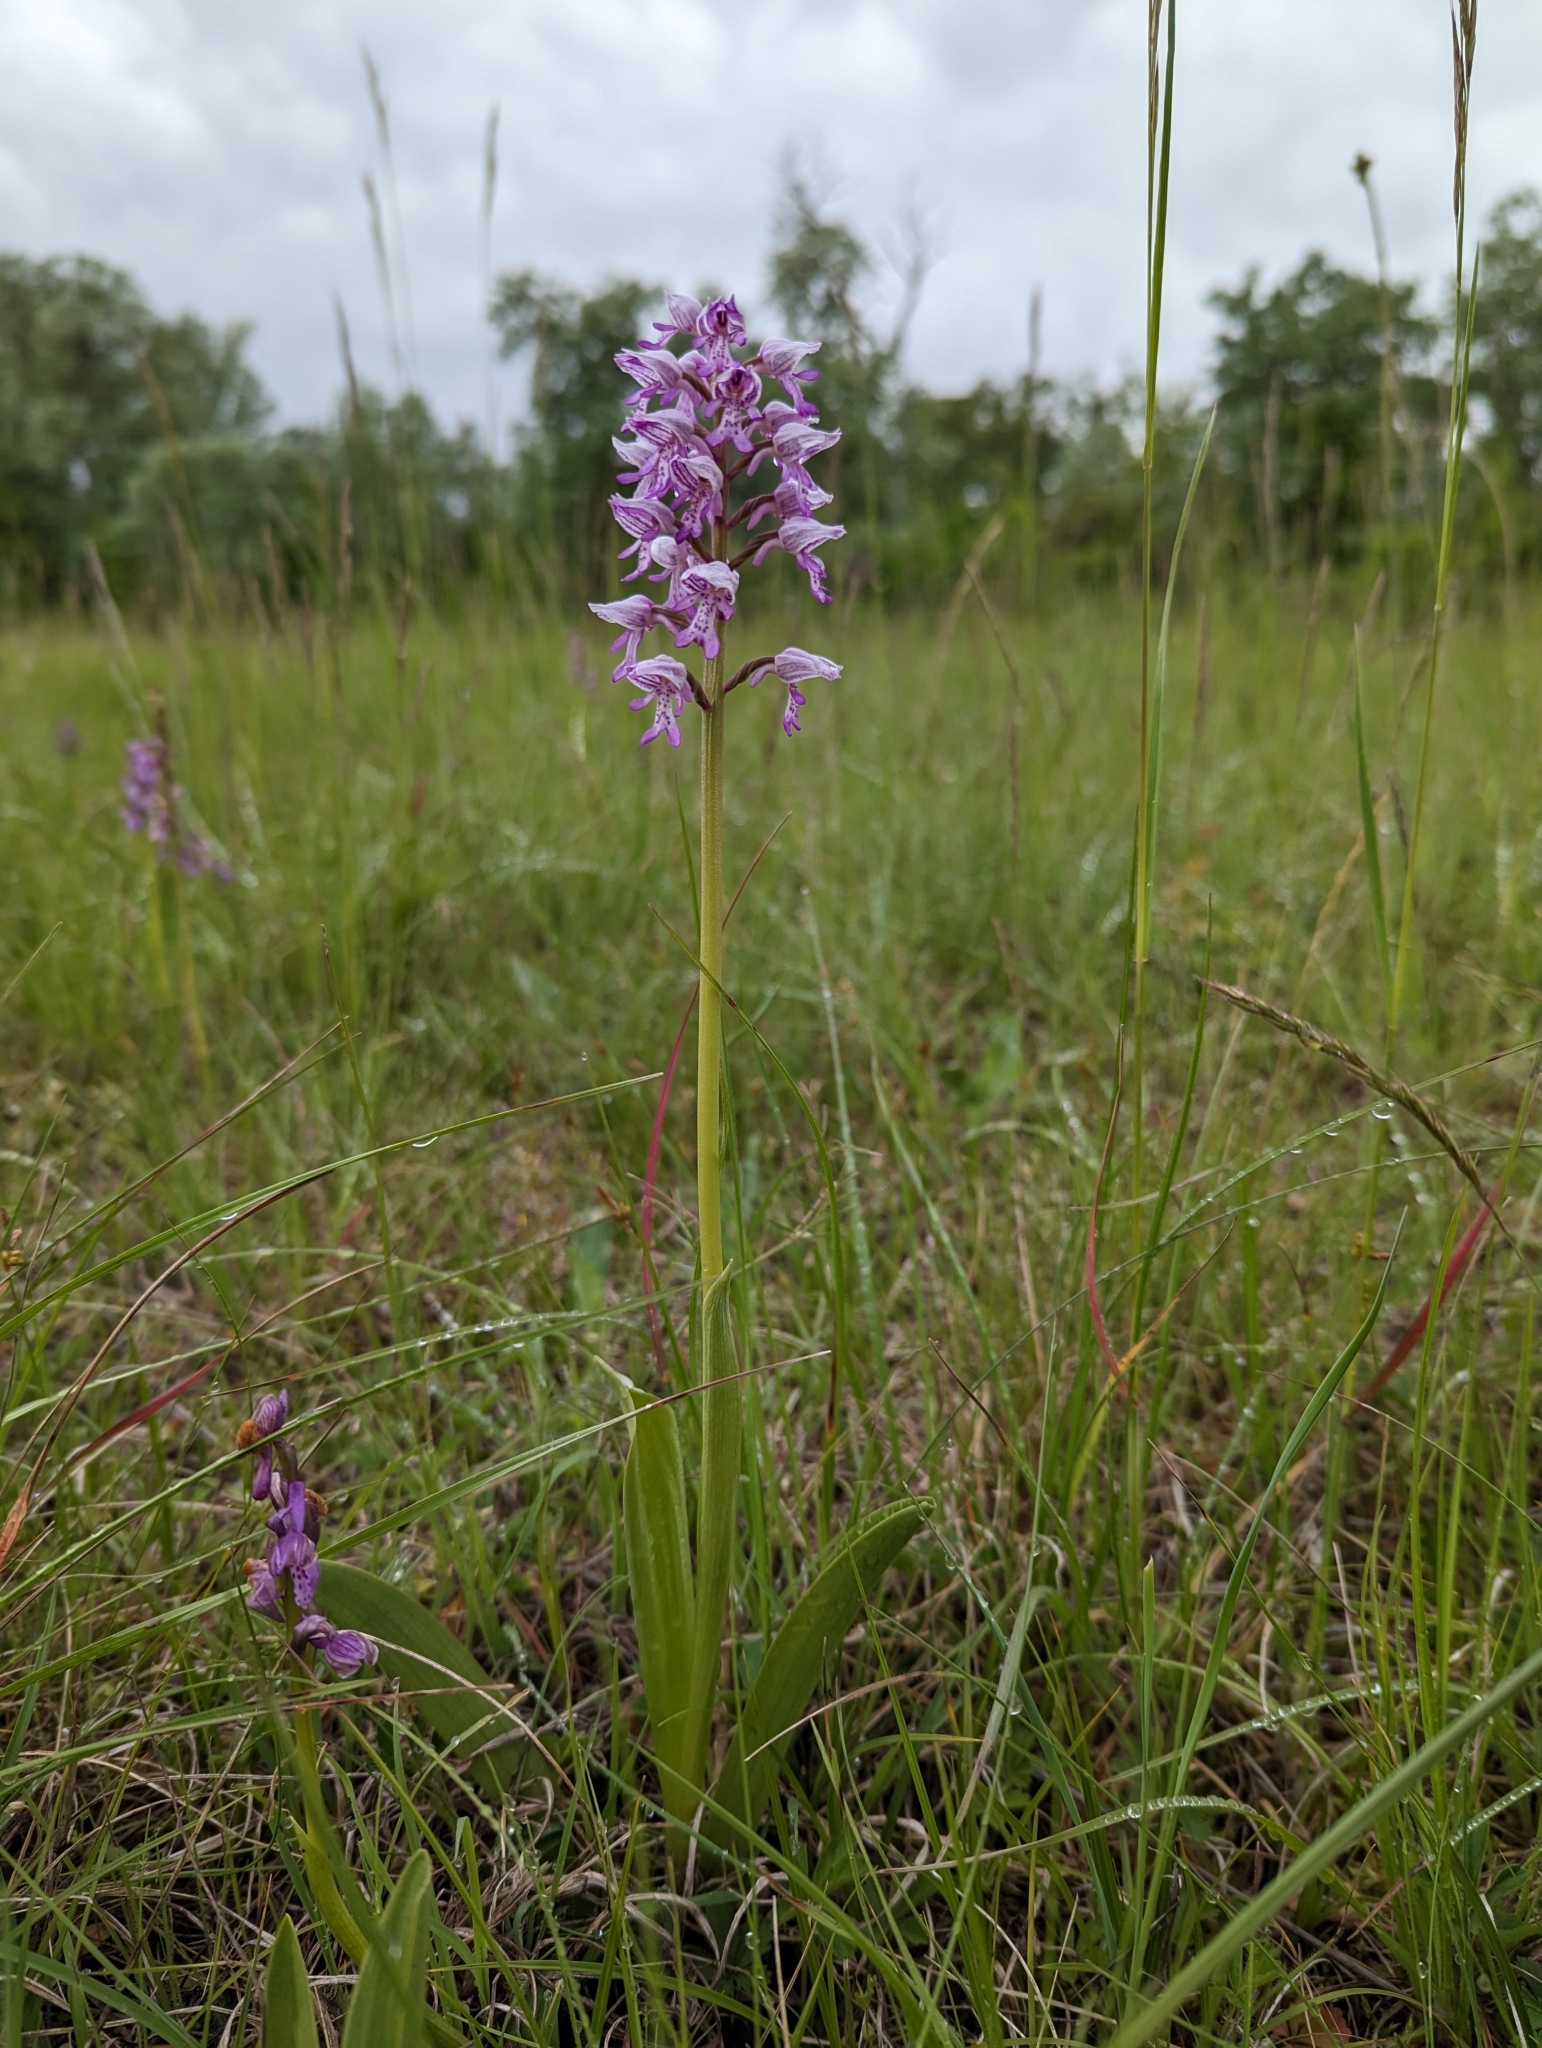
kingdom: Plantae
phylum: Tracheophyta
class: Liliopsida
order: Asparagales
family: Orchidaceae
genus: Orchis
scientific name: Orchis militaris
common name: Military orchid
